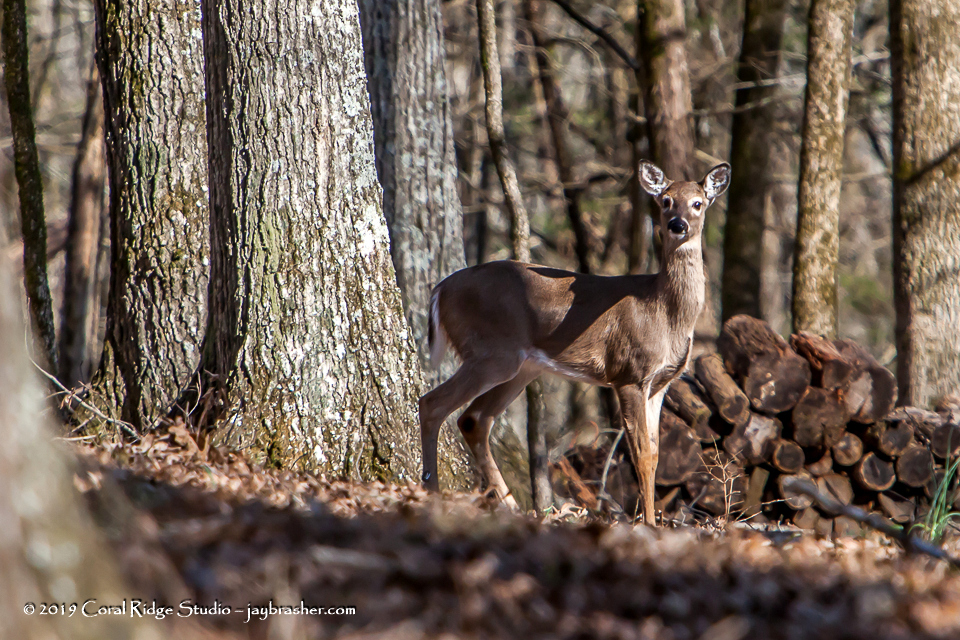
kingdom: Animalia
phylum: Chordata
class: Mammalia
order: Artiodactyla
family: Cervidae
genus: Odocoileus
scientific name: Odocoileus virginianus
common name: White-tailed deer
